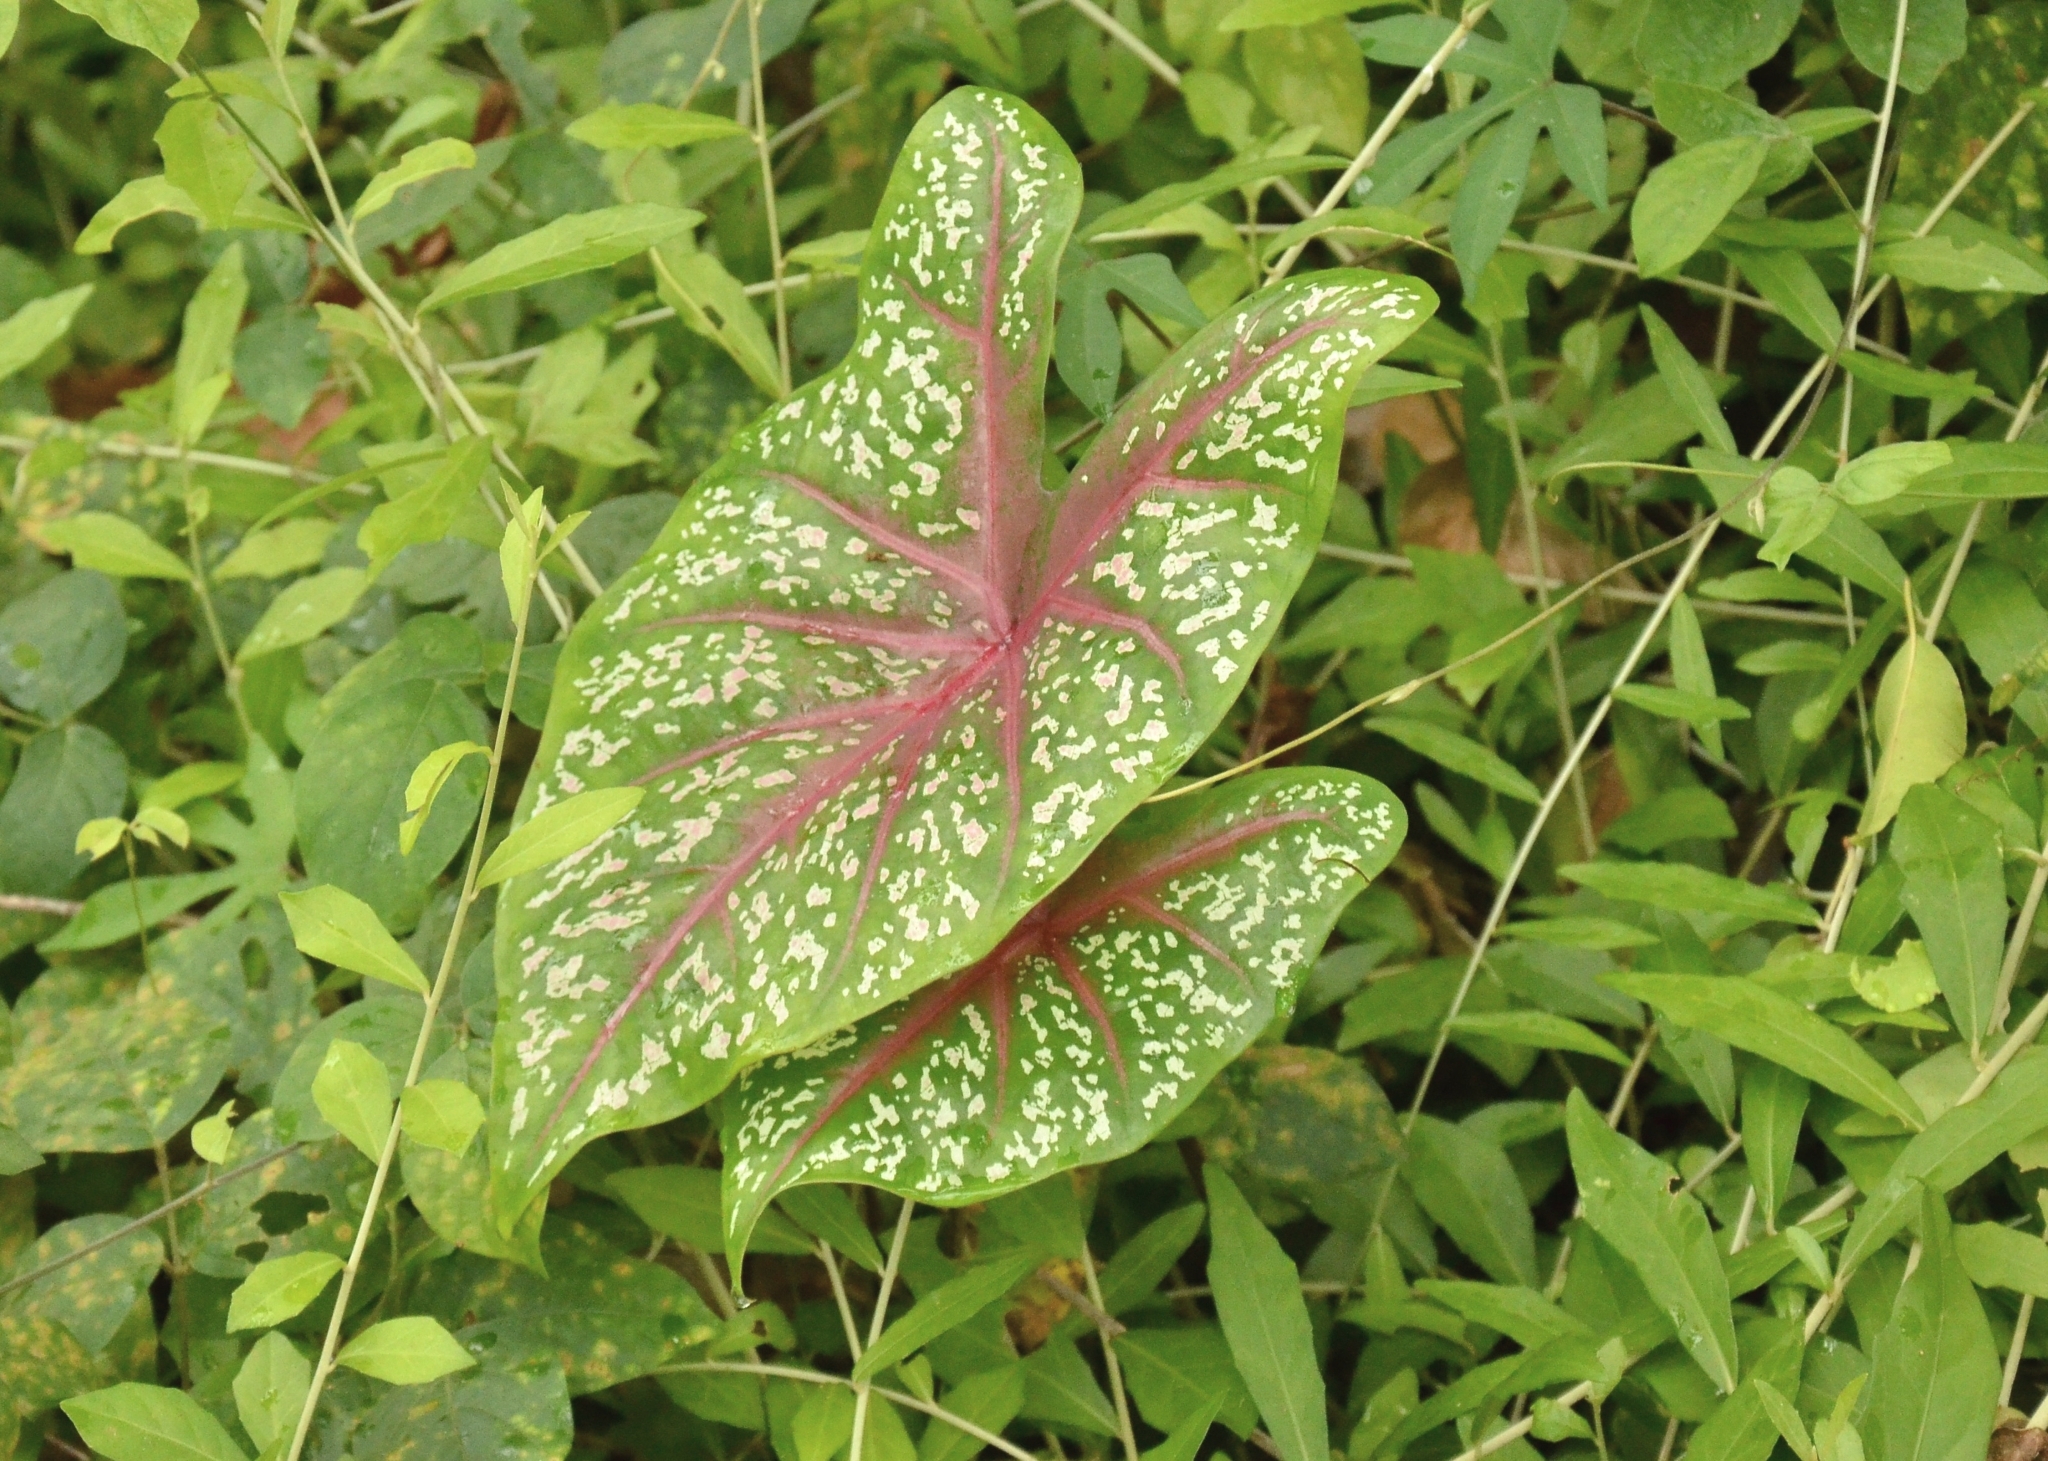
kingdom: Plantae
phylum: Tracheophyta
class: Liliopsida
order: Alismatales
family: Araceae
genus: Caladium
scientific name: Caladium bicolor
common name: Artist's pallet
